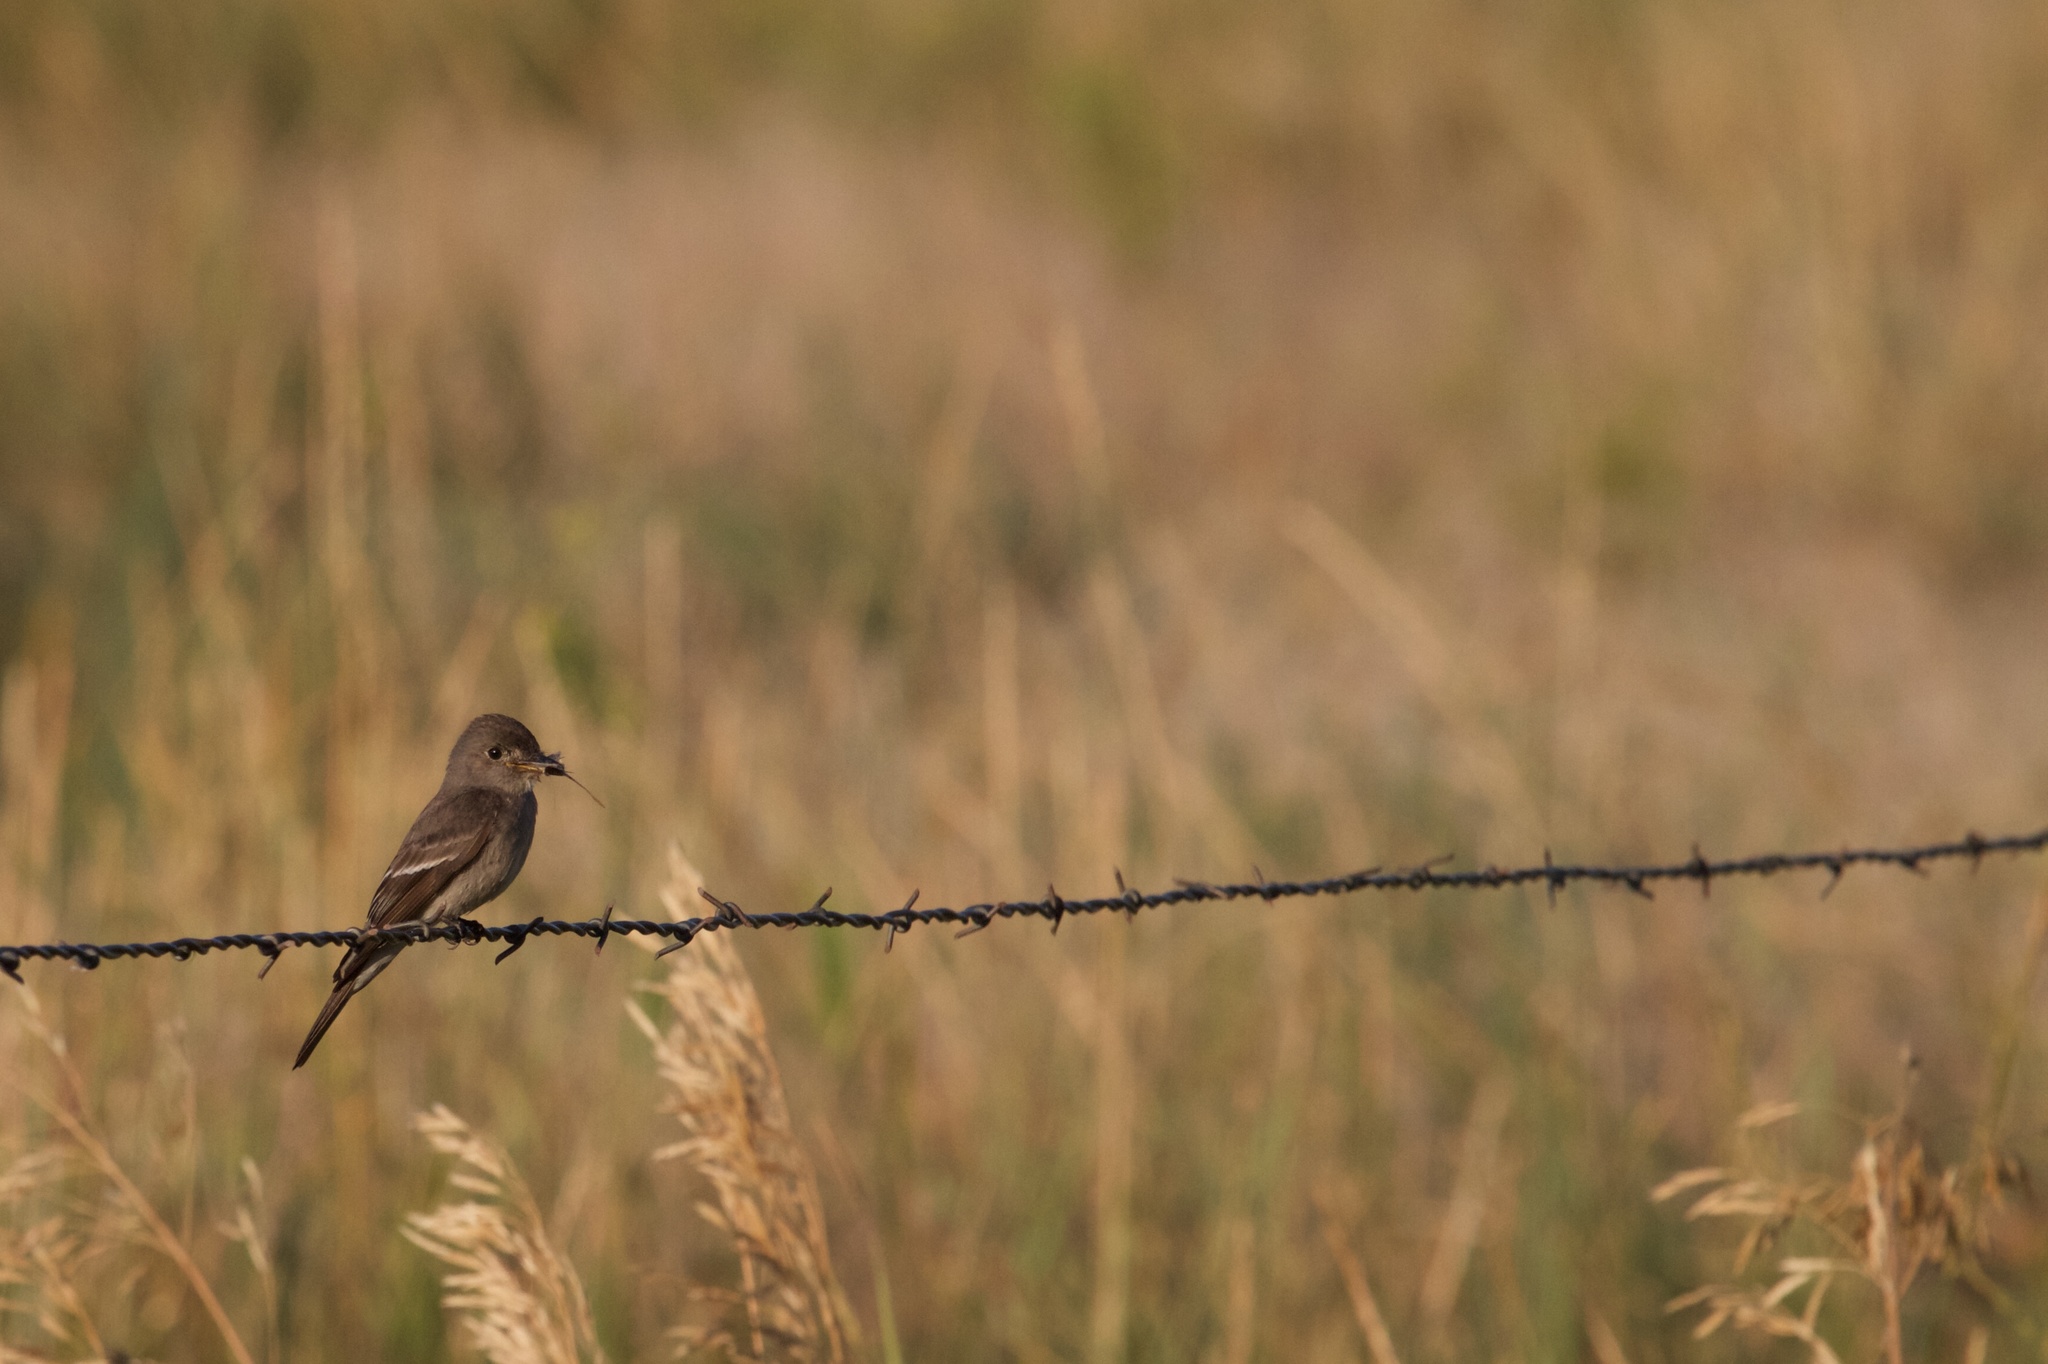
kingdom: Animalia
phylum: Chordata
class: Aves
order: Passeriformes
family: Tyrannidae
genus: Contopus
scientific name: Contopus sordidulus
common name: Western wood-pewee
